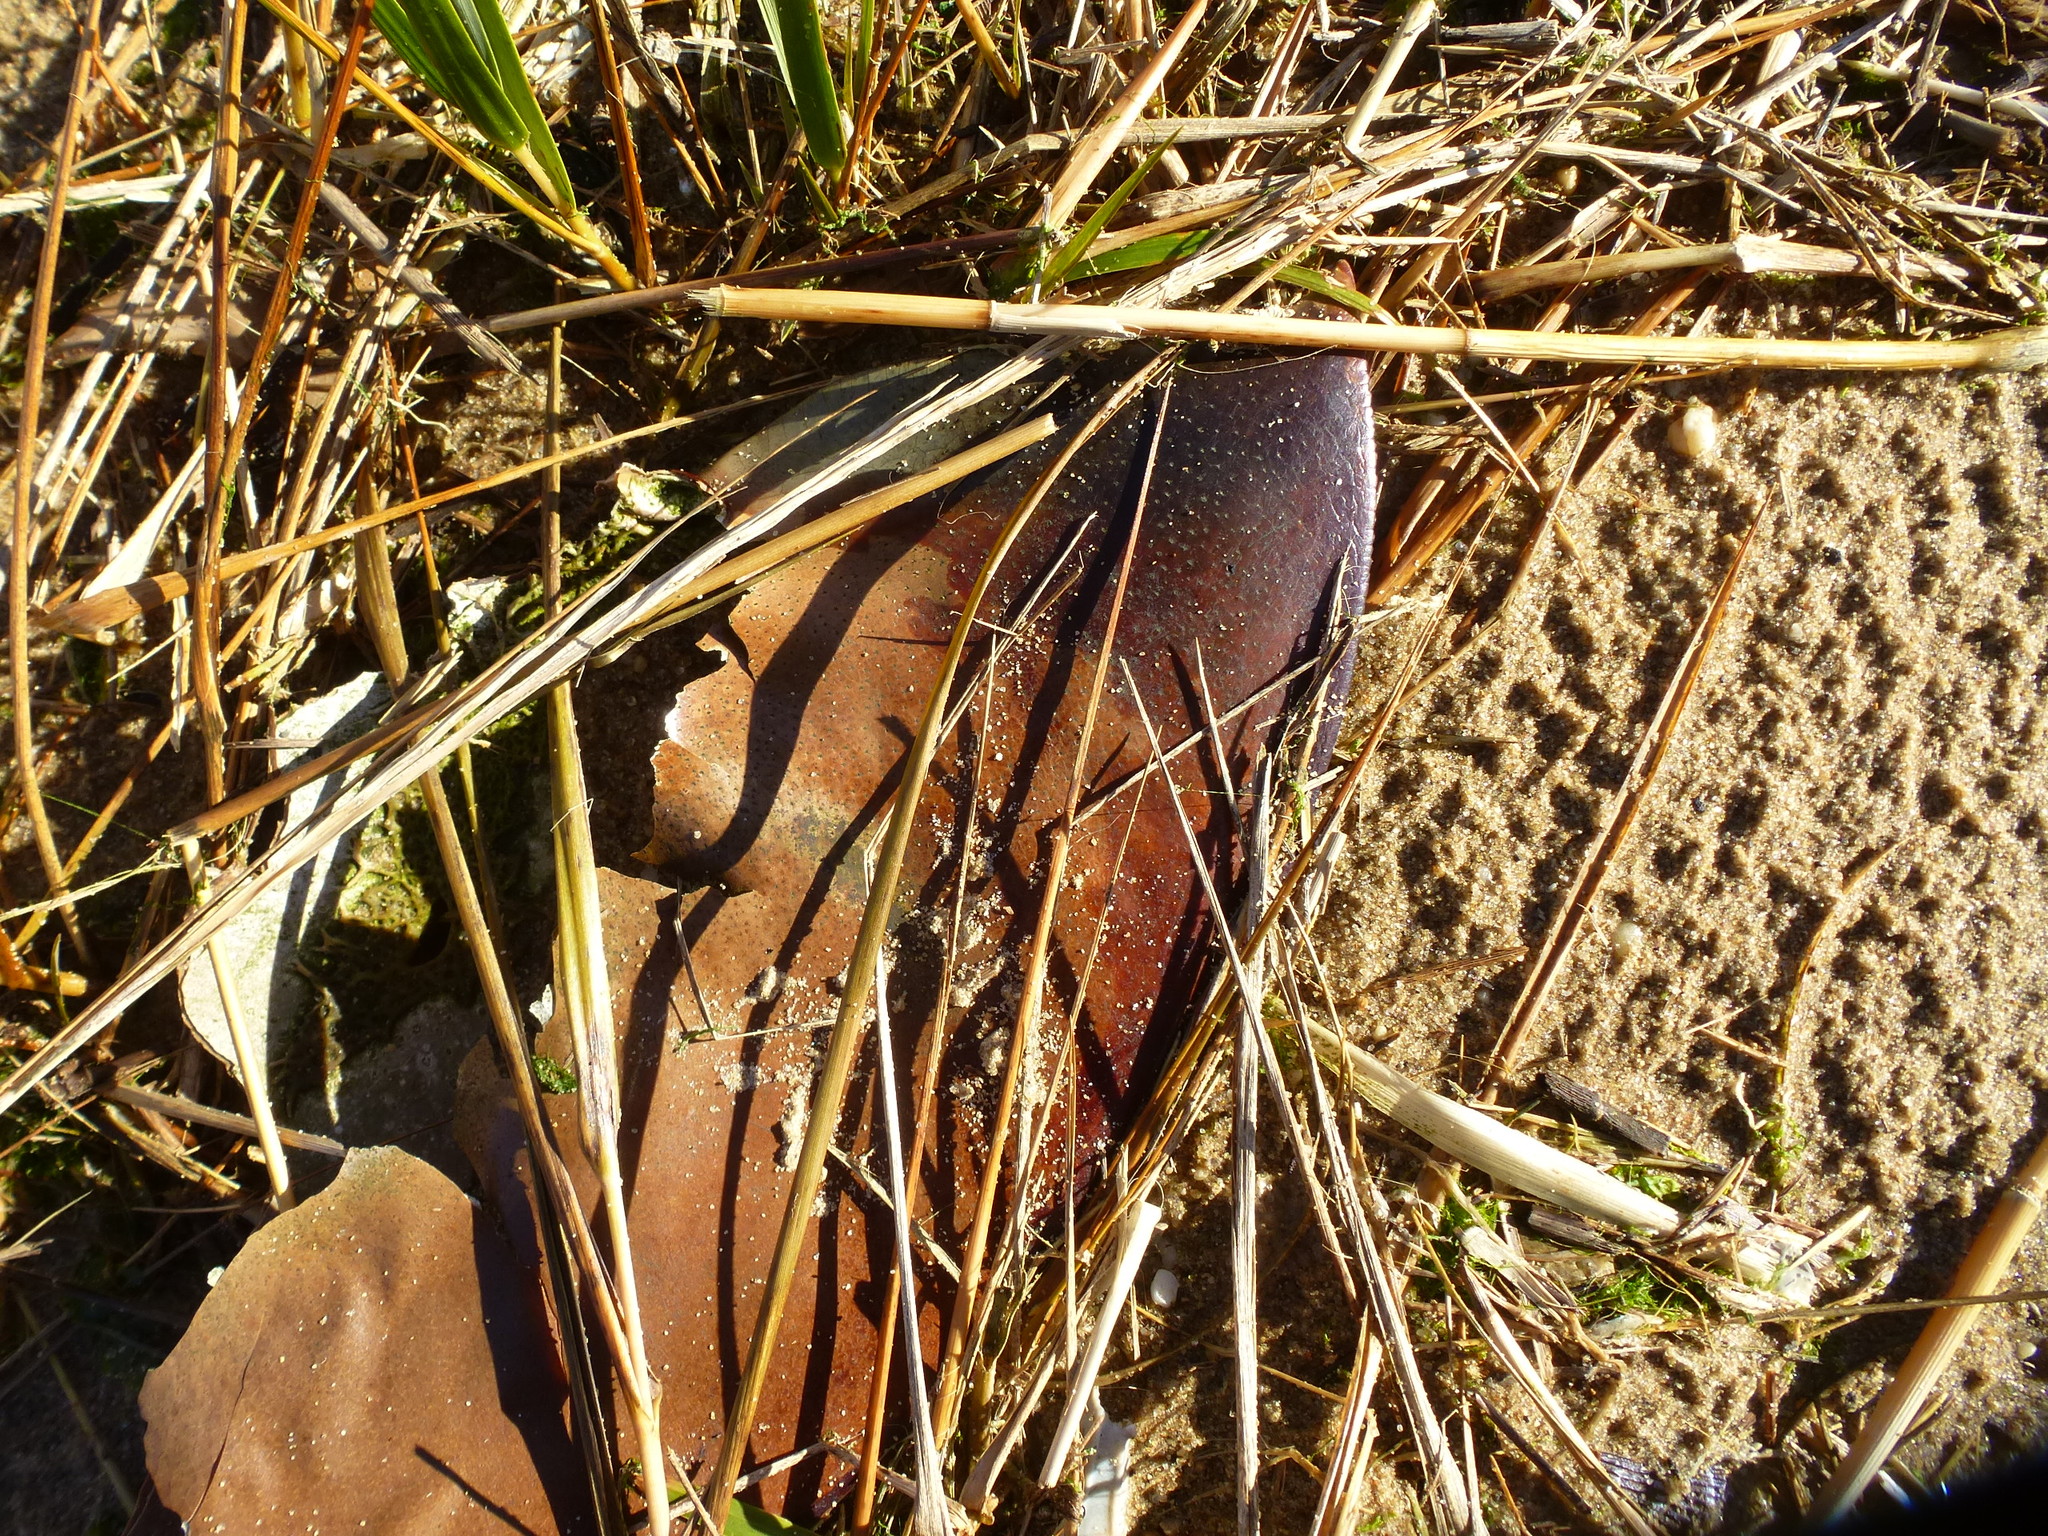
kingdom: Animalia
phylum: Arthropoda
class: Merostomata
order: Xiphosurida
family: Limulidae
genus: Limulus
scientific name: Limulus polyphemus
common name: Horseshoe crab
